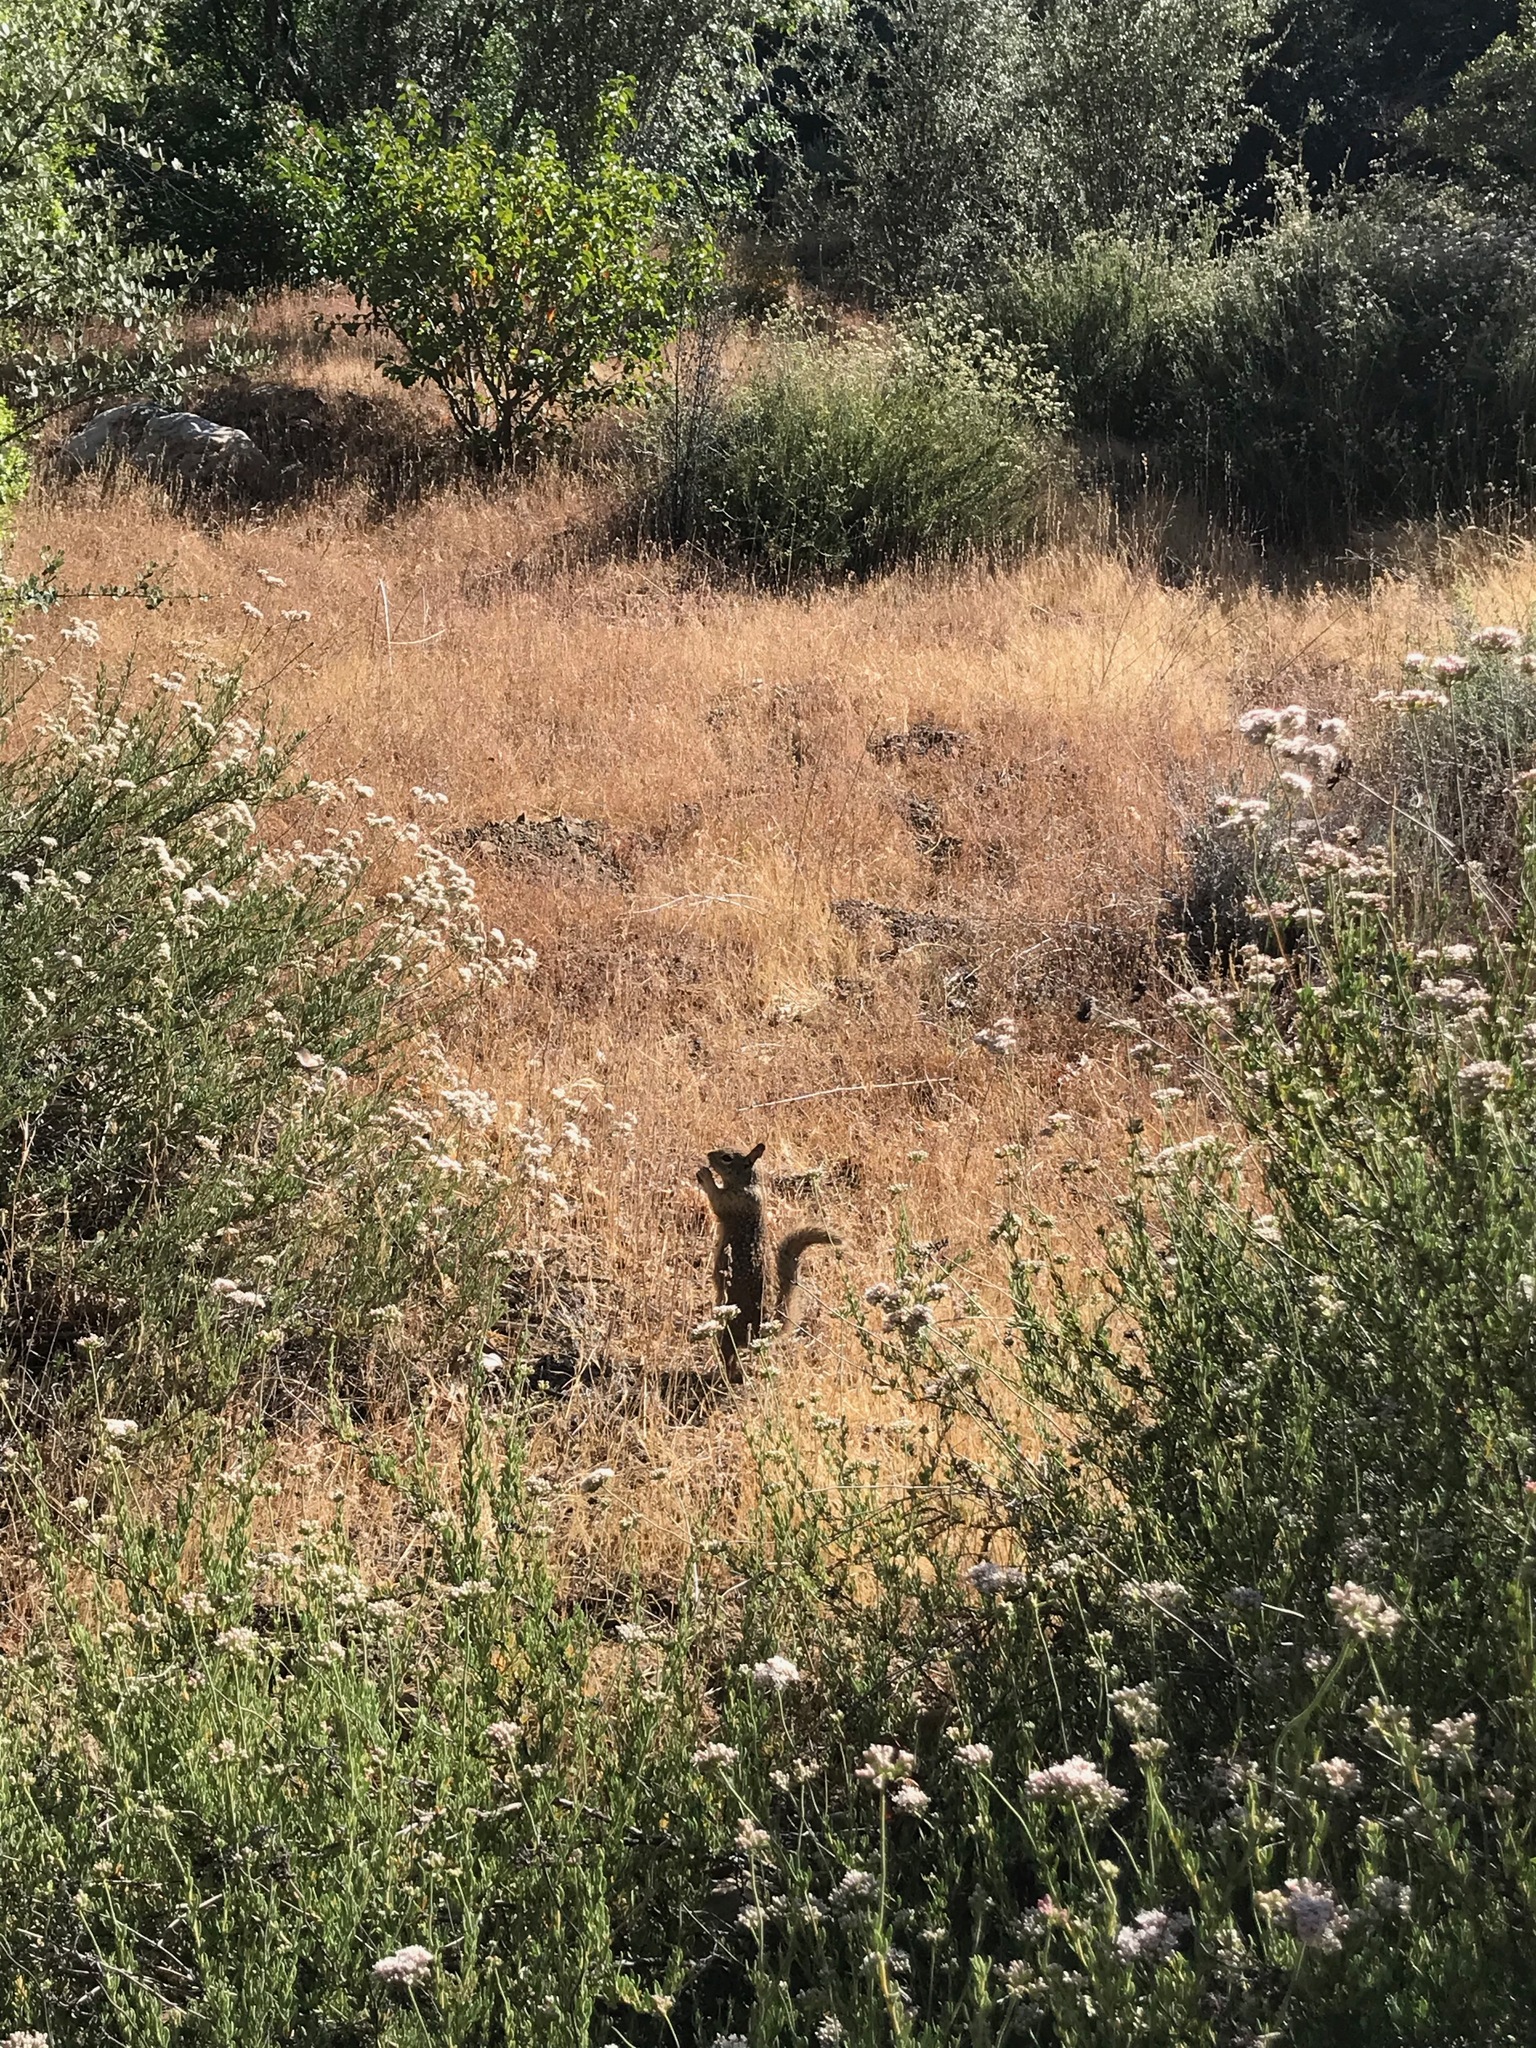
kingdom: Animalia
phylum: Chordata
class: Mammalia
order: Rodentia
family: Sciuridae
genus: Otospermophilus
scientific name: Otospermophilus beecheyi
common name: California ground squirrel
